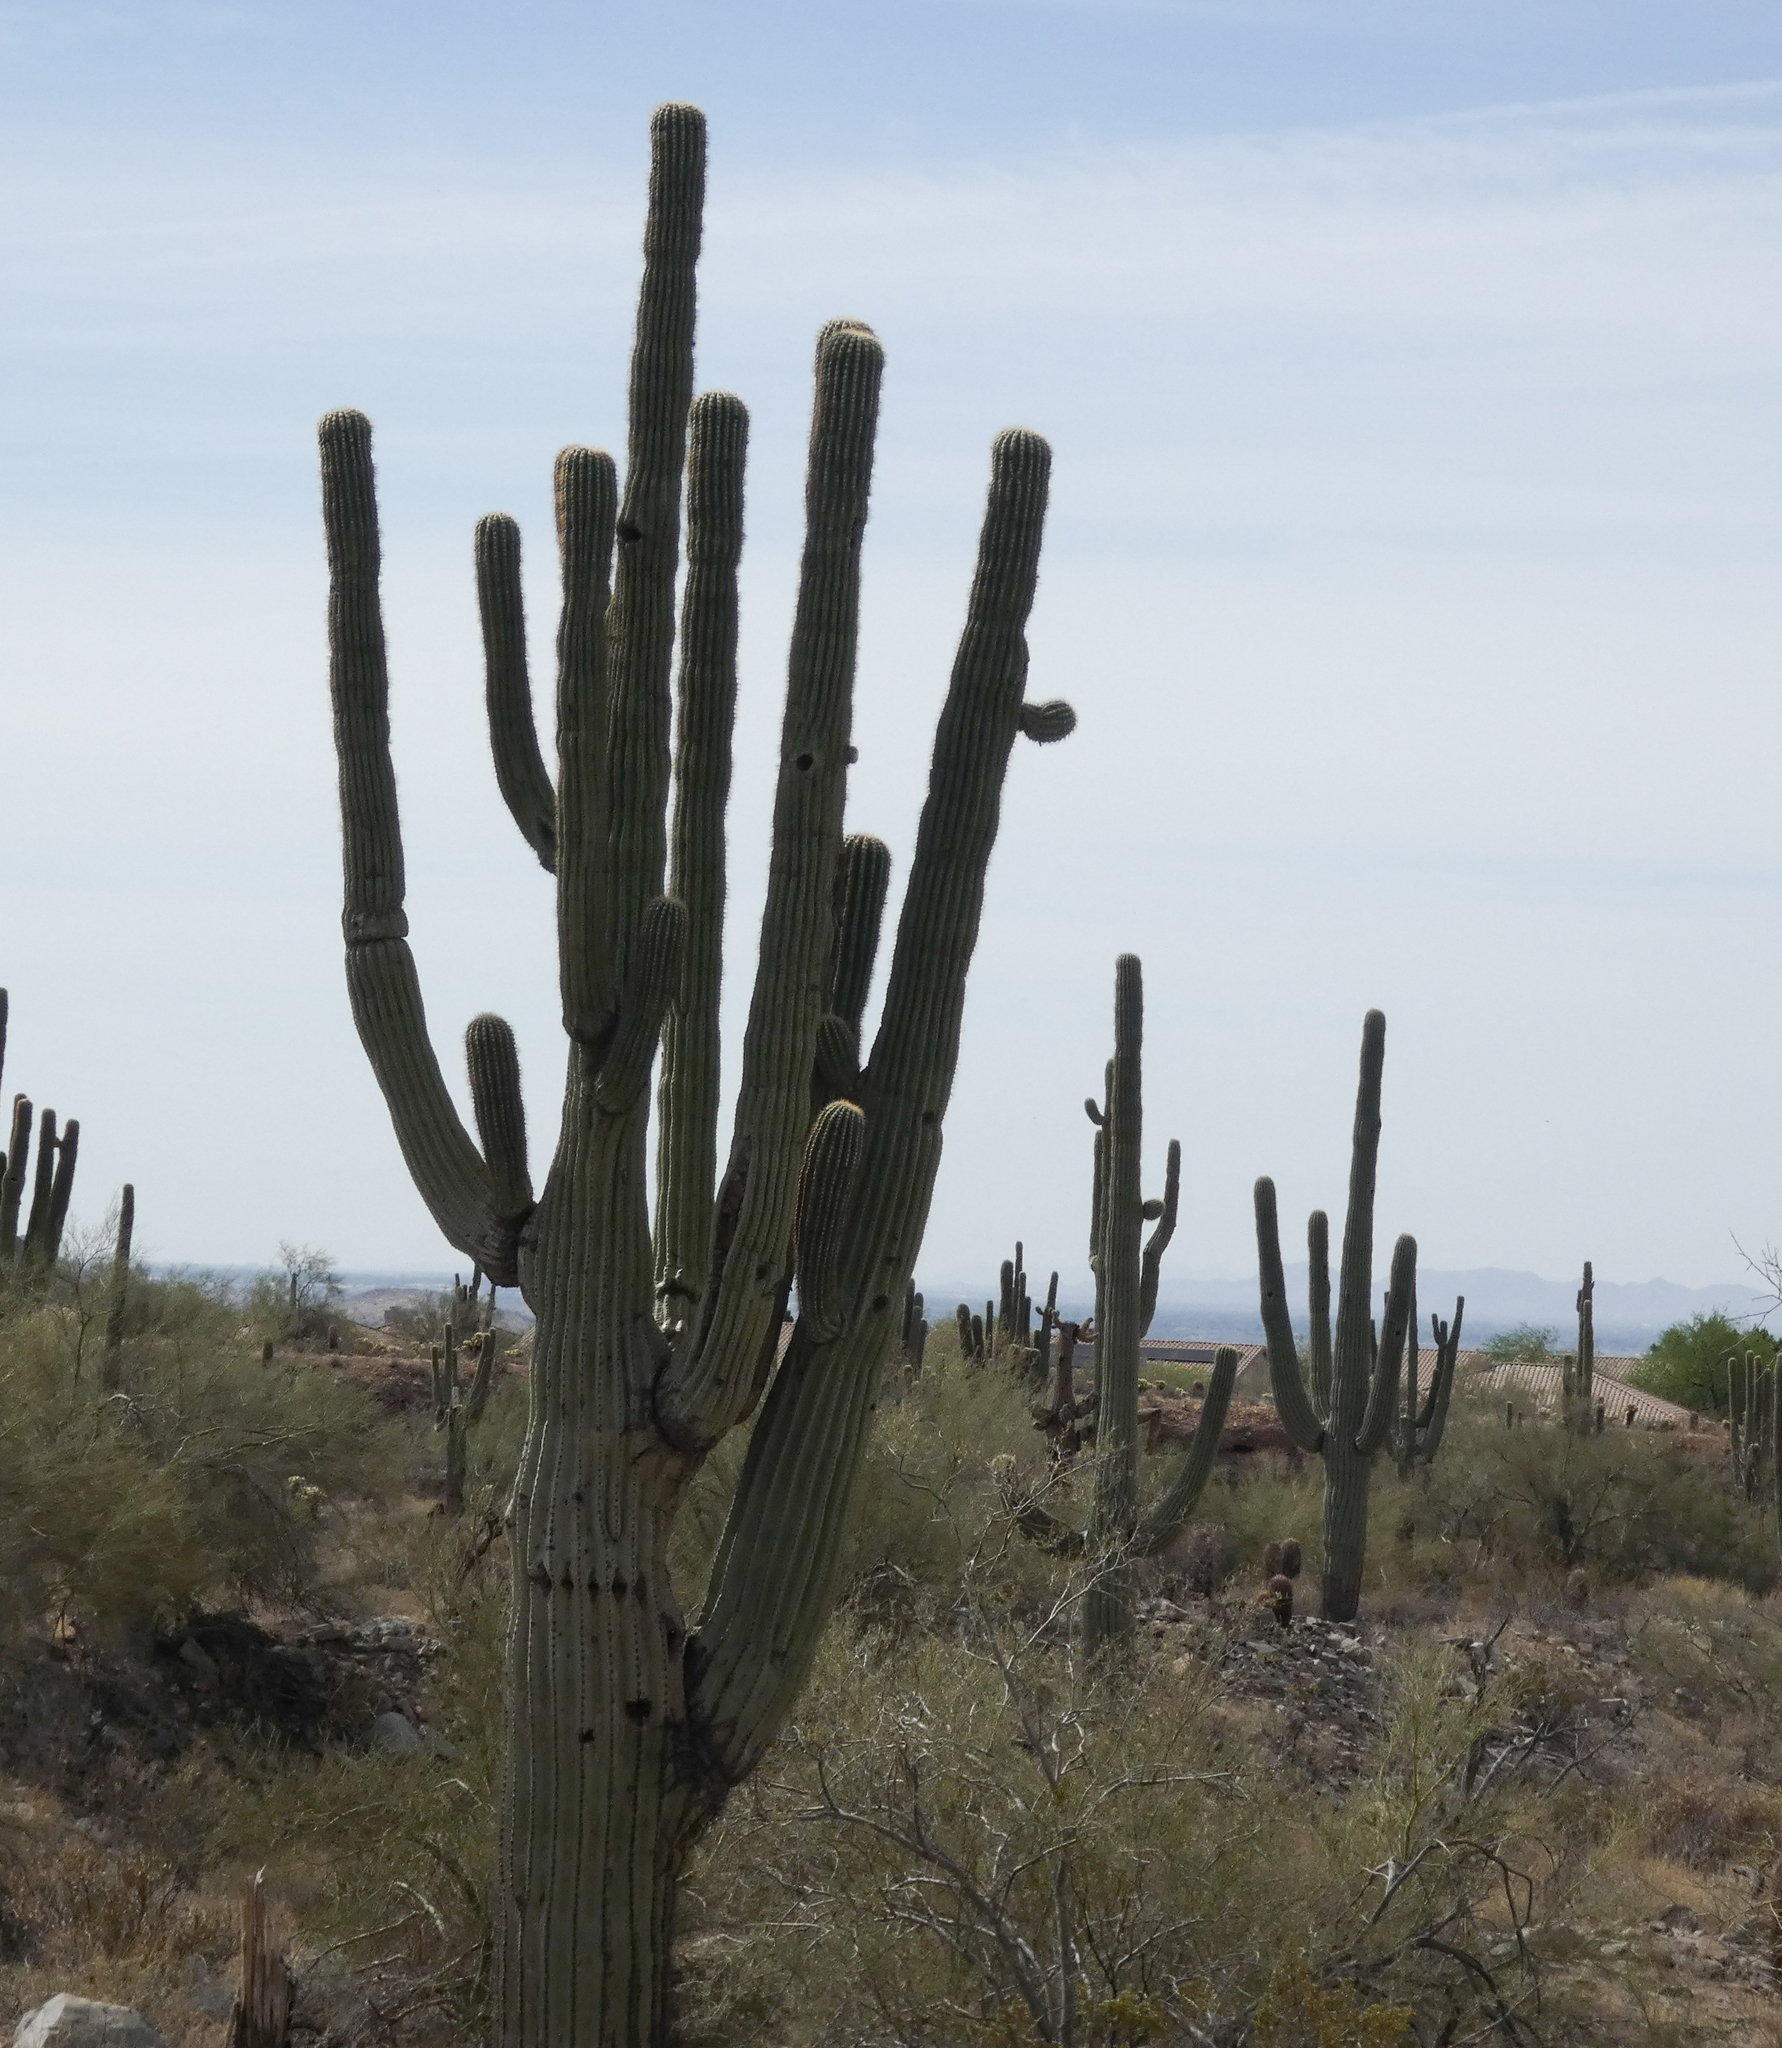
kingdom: Plantae
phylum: Tracheophyta
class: Magnoliopsida
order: Caryophyllales
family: Cactaceae
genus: Carnegiea
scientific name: Carnegiea gigantea
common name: Saguaro
